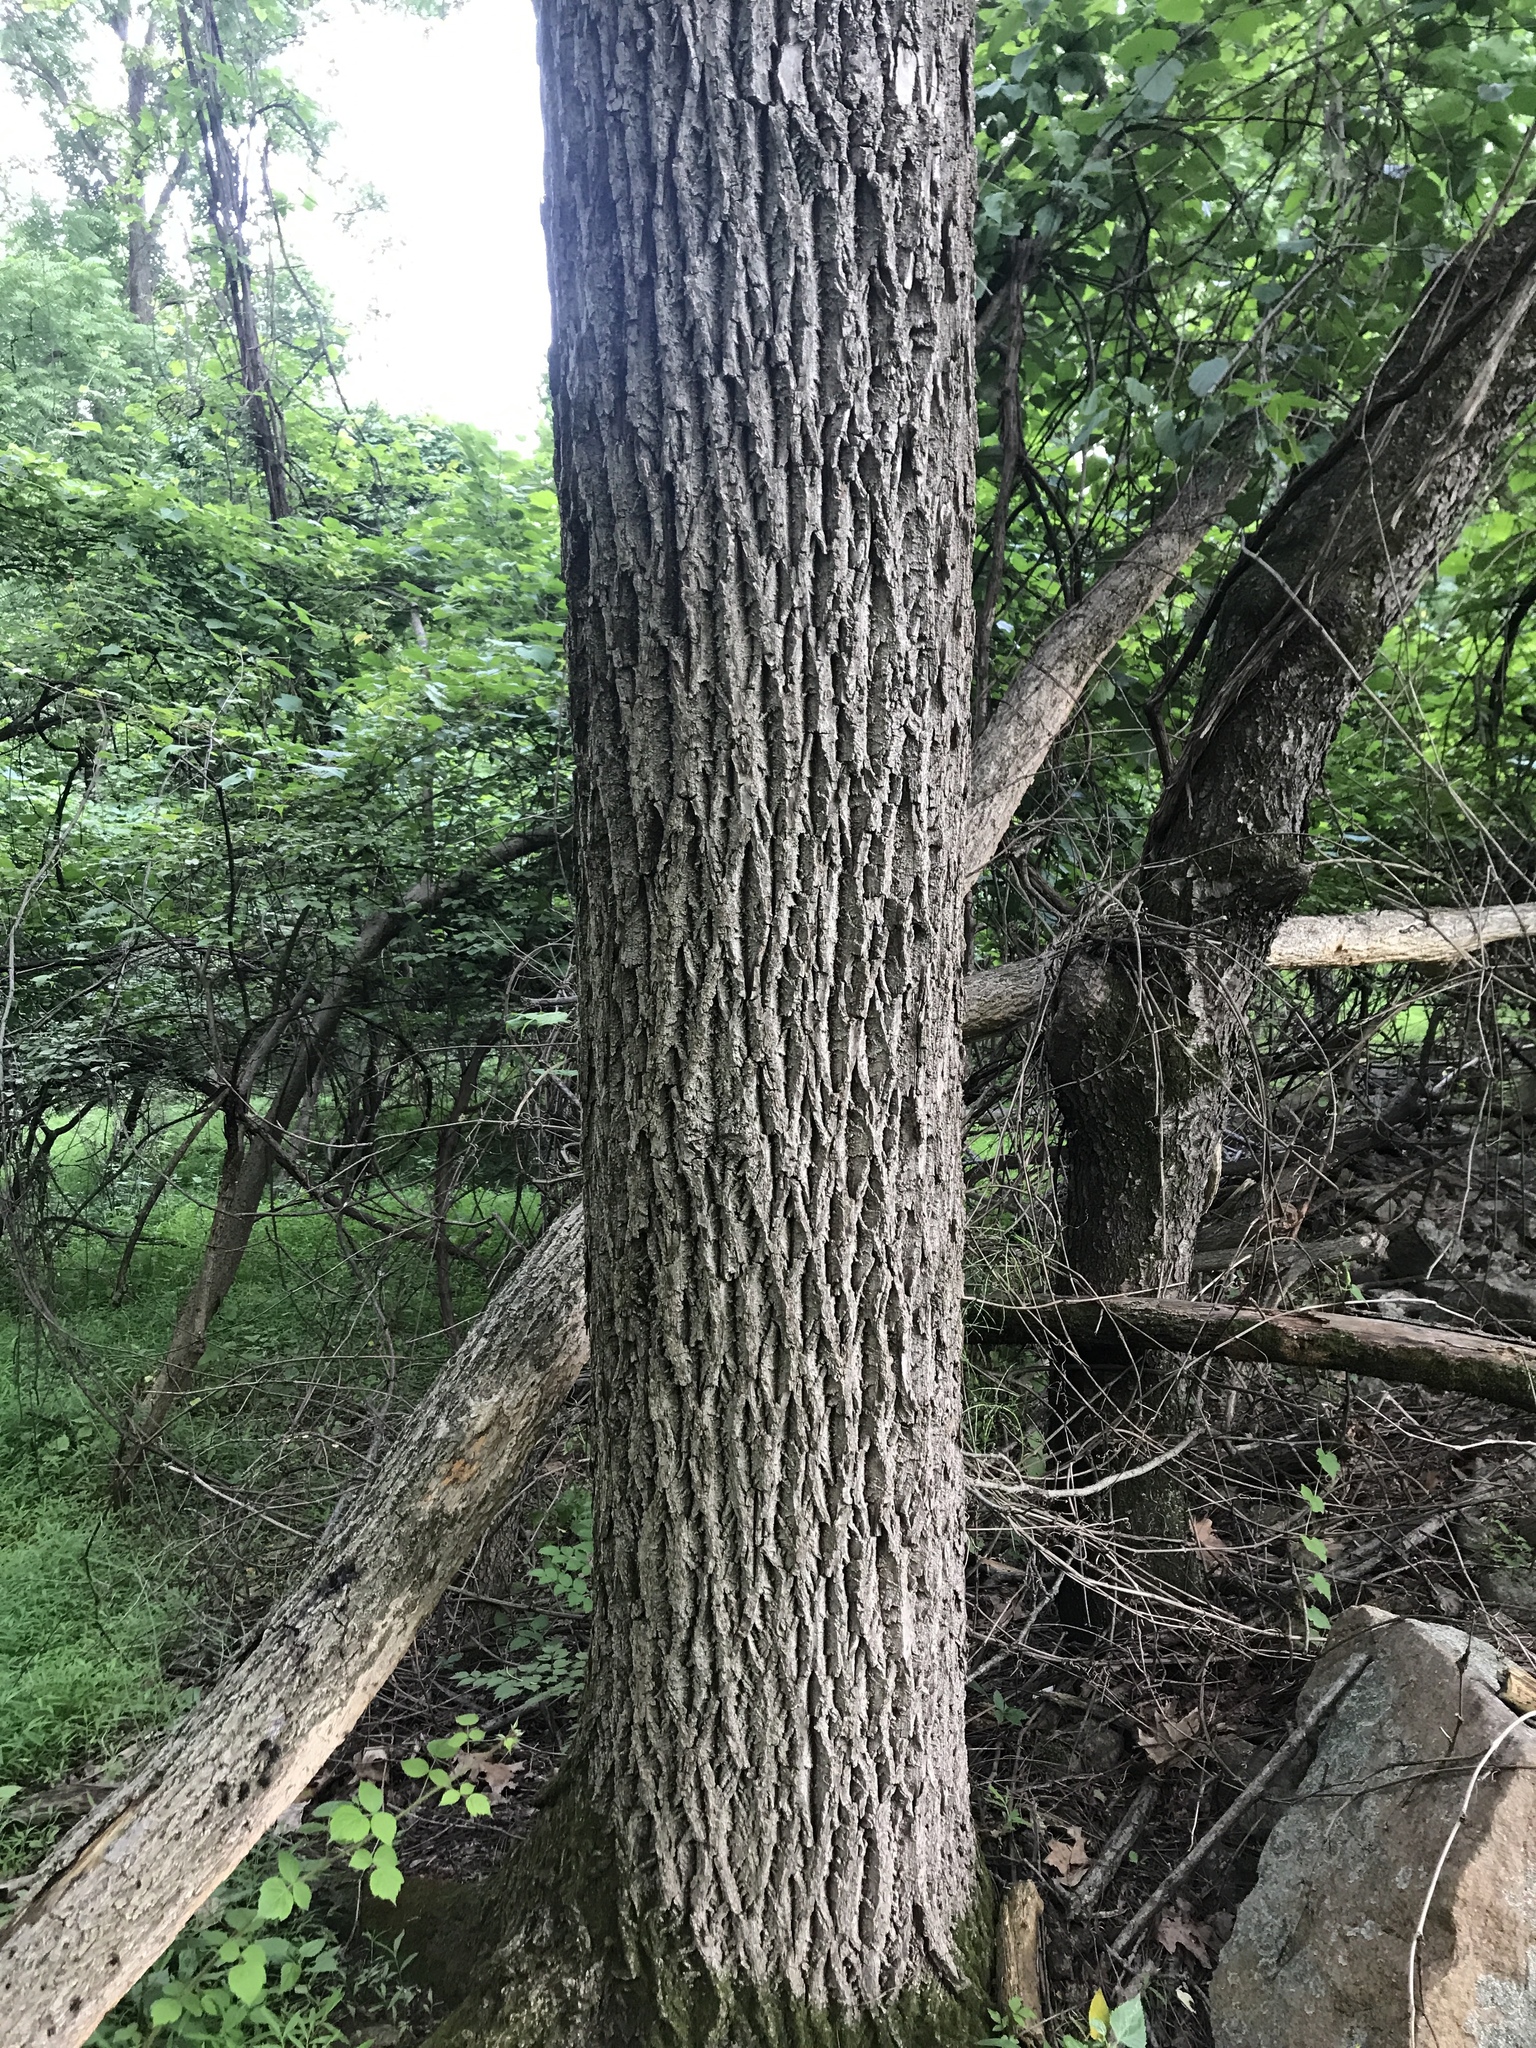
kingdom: Plantae
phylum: Tracheophyta
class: Magnoliopsida
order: Fagales
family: Juglandaceae
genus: Juglans
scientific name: Juglans nigra
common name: Black walnut
